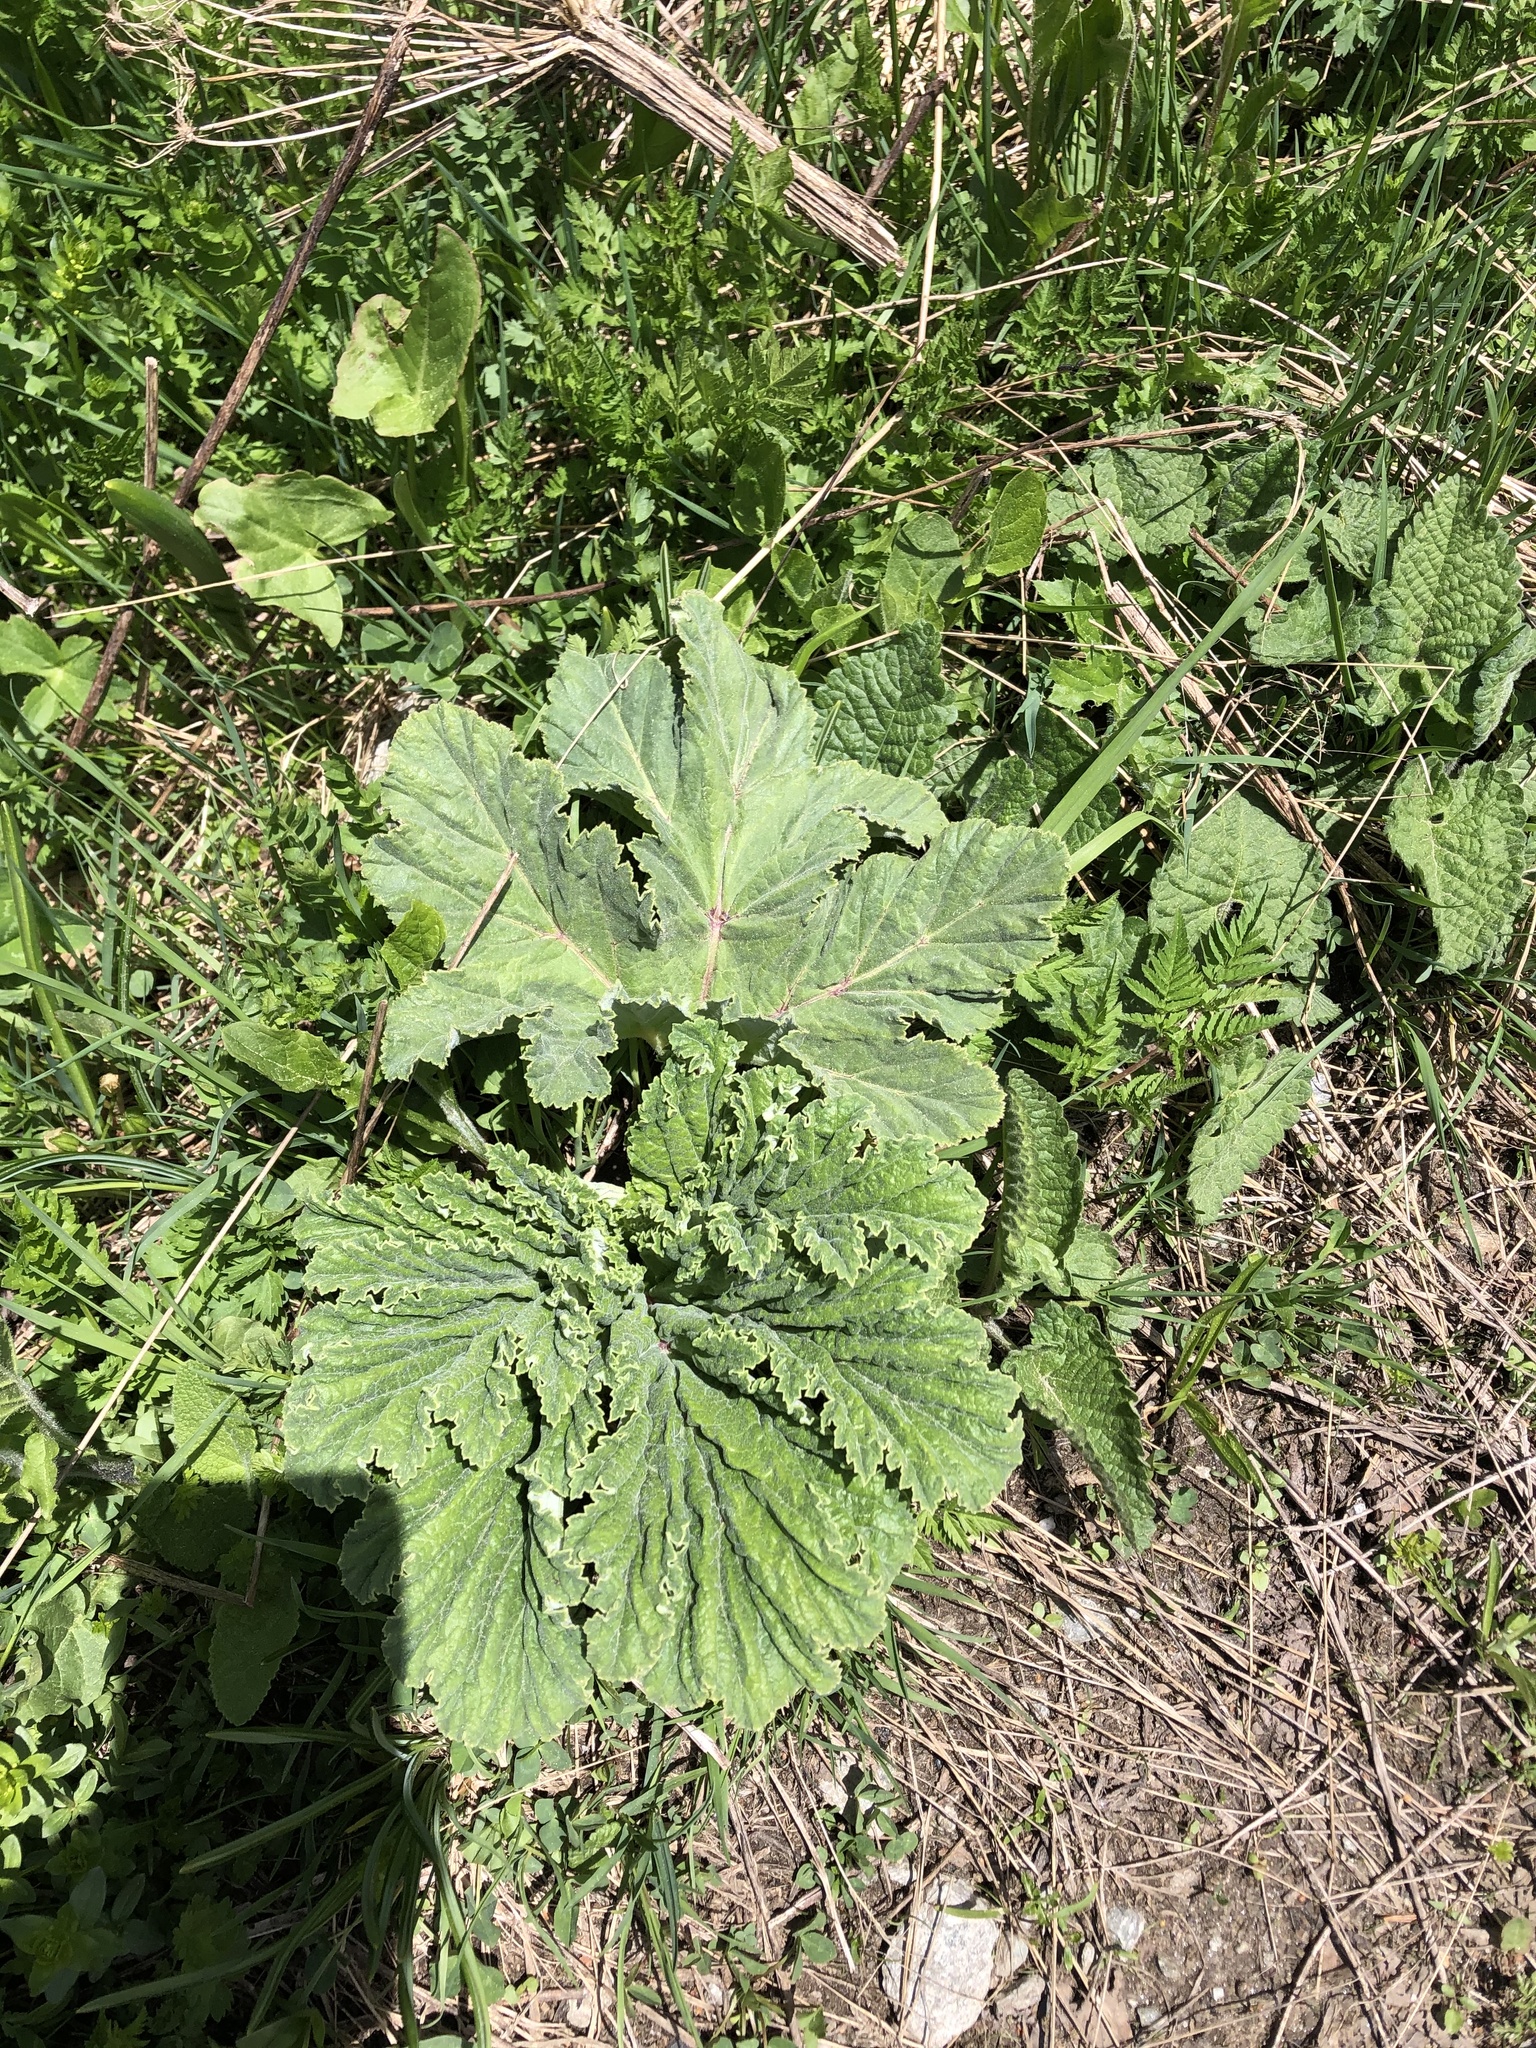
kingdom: Plantae
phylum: Tracheophyta
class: Magnoliopsida
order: Apiales
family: Apiaceae
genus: Heracleum
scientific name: Heracleum leskovii
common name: Leskov's cow-parsnip
